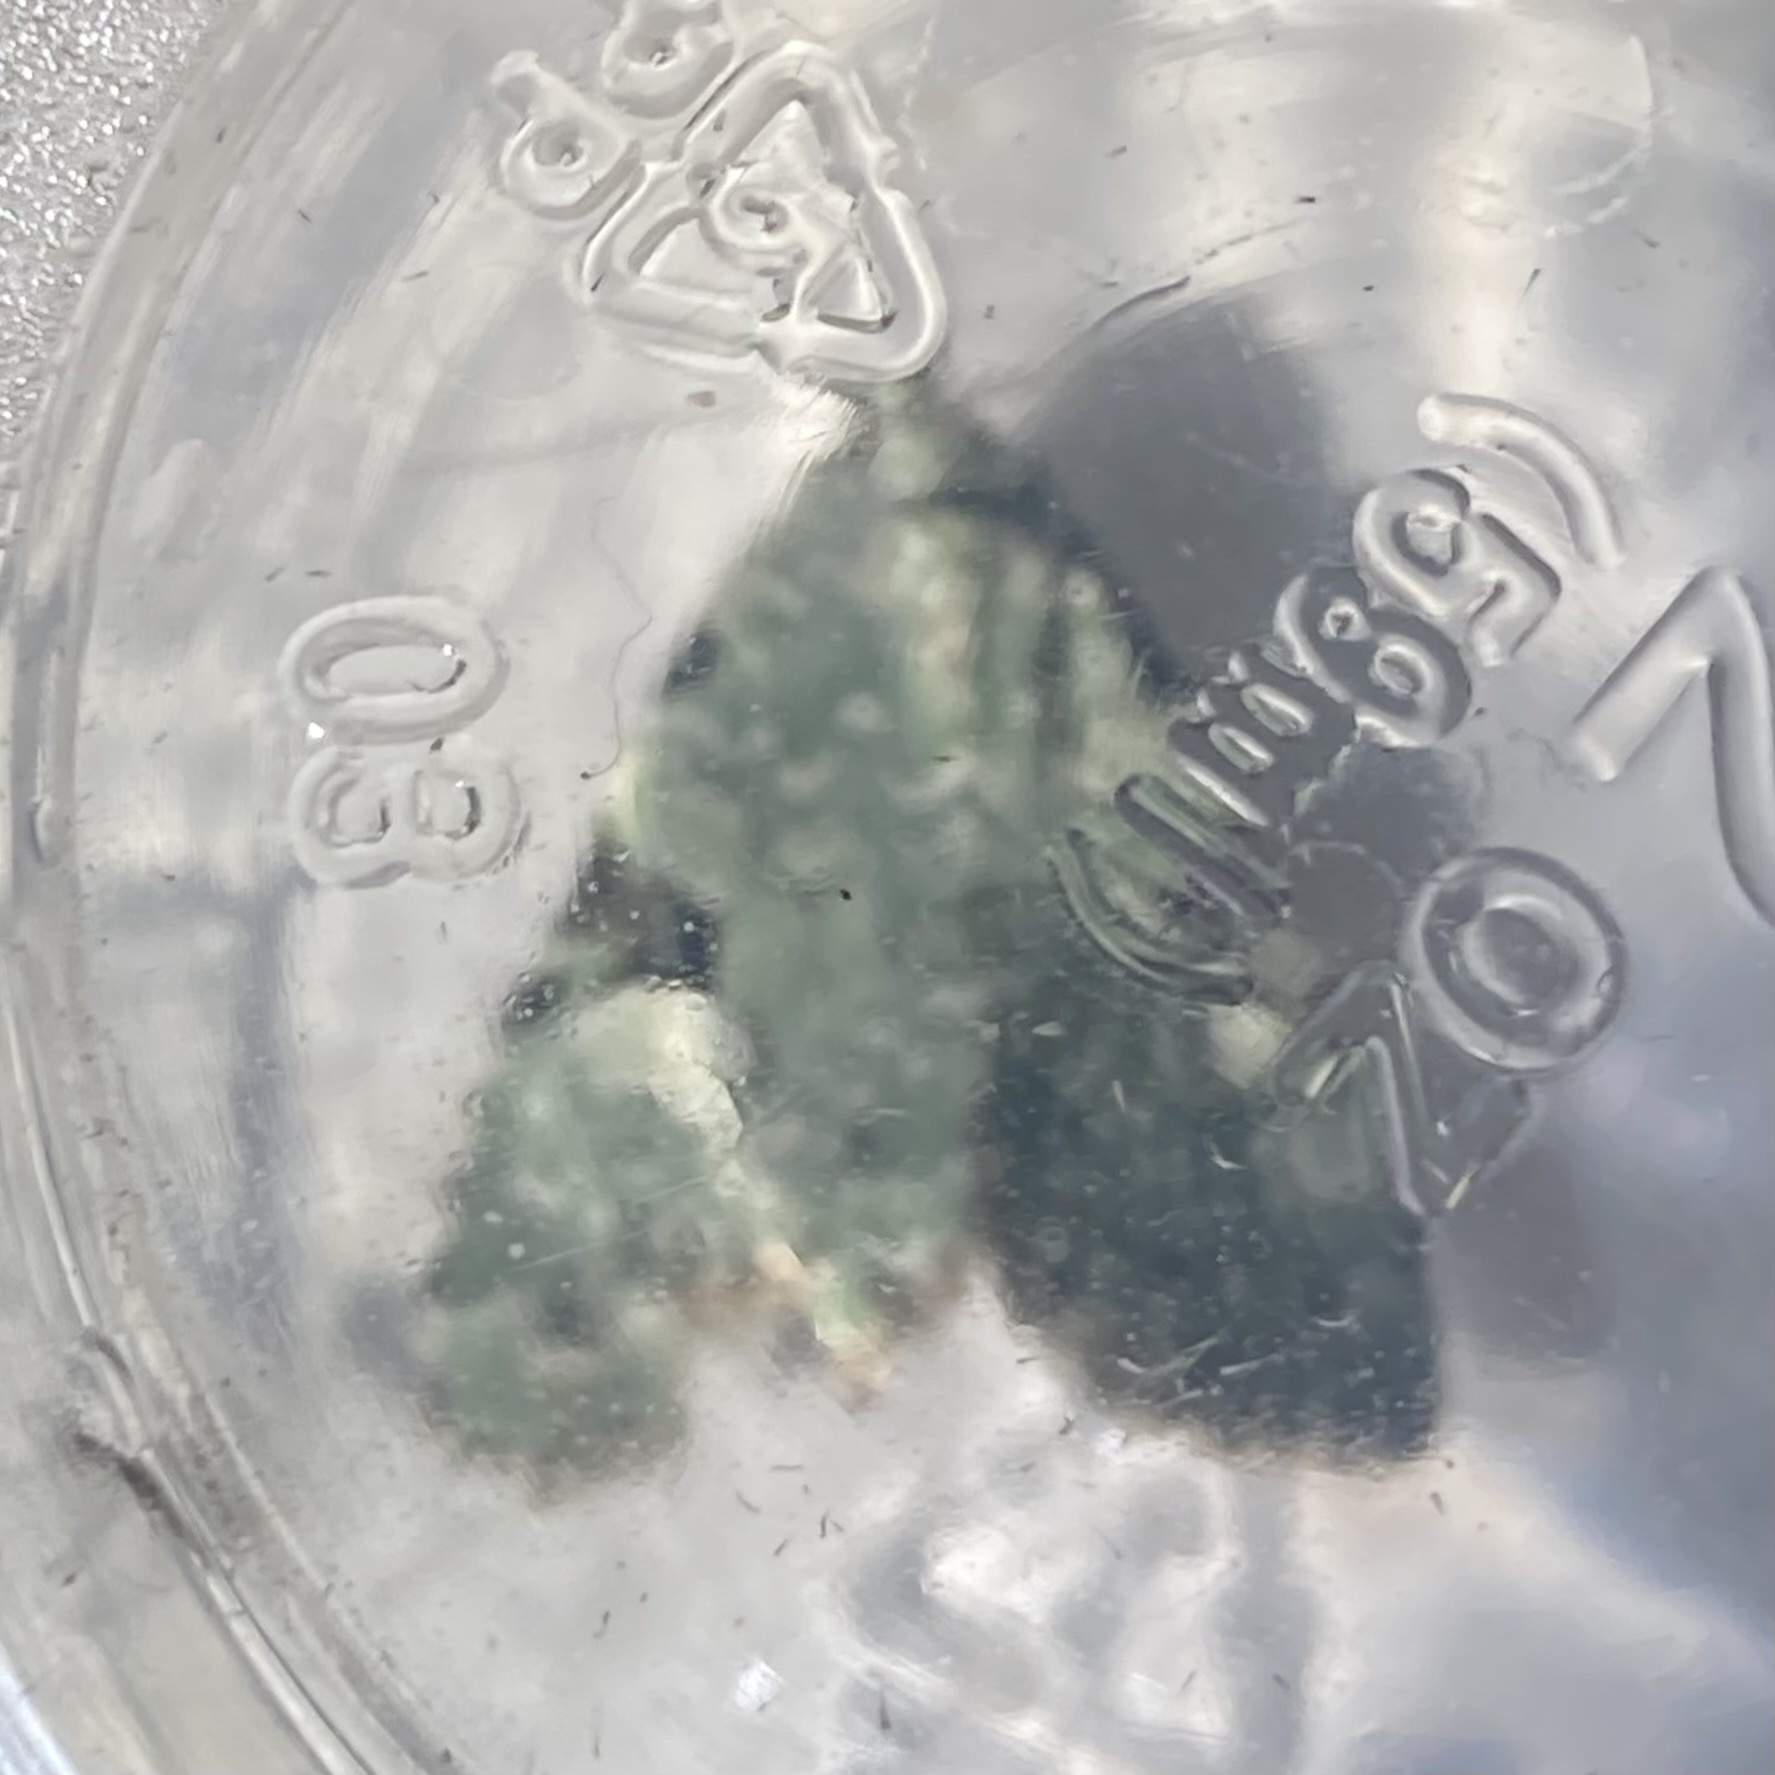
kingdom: Animalia
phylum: Arthropoda
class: Insecta
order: Lepidoptera
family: Noctuidae
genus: Leuconycta
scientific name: Leuconycta diphteroides
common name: Green leuconycta moth
